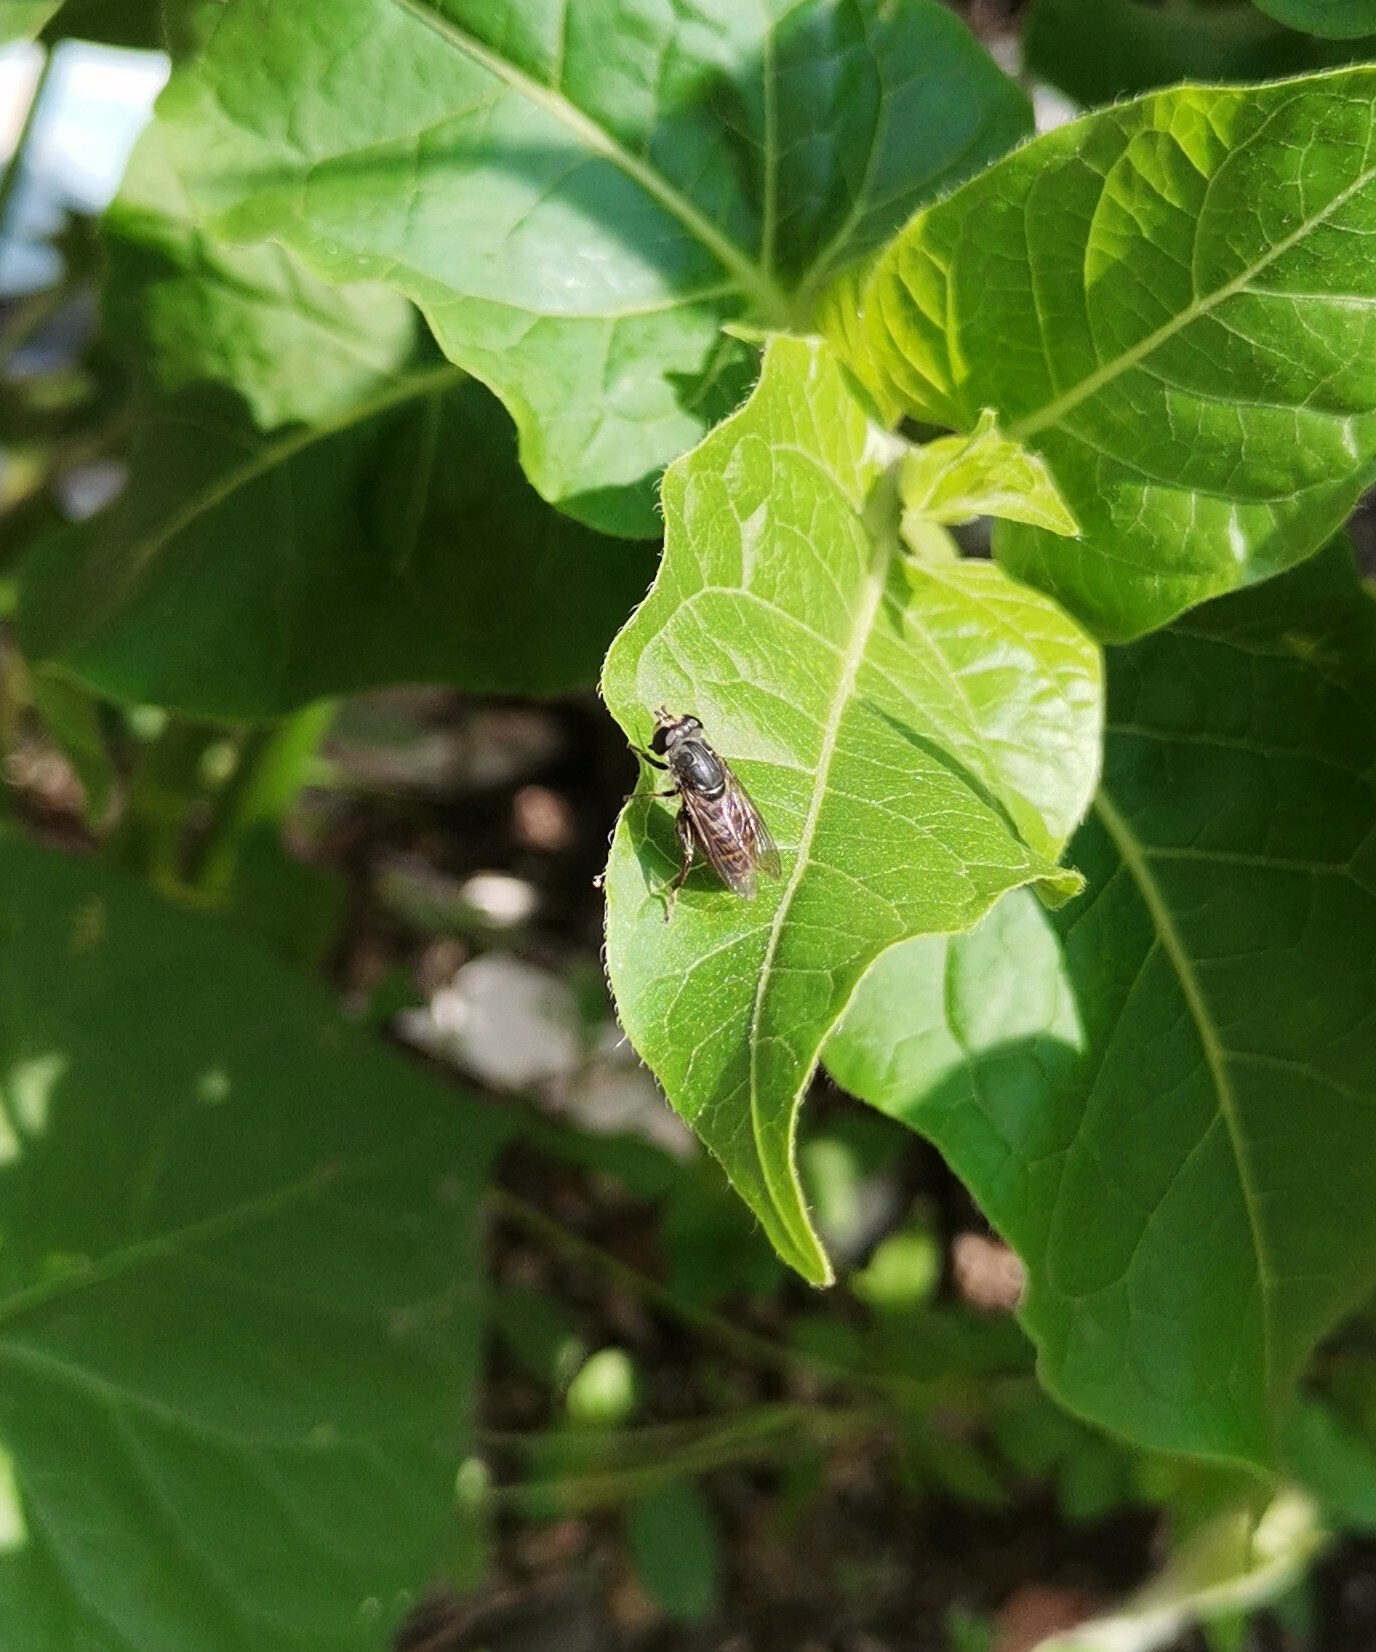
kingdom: Animalia
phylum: Arthropoda
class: Insecta
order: Diptera
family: Syrphidae
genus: Asemosyrphus
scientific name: Asemosyrphus
